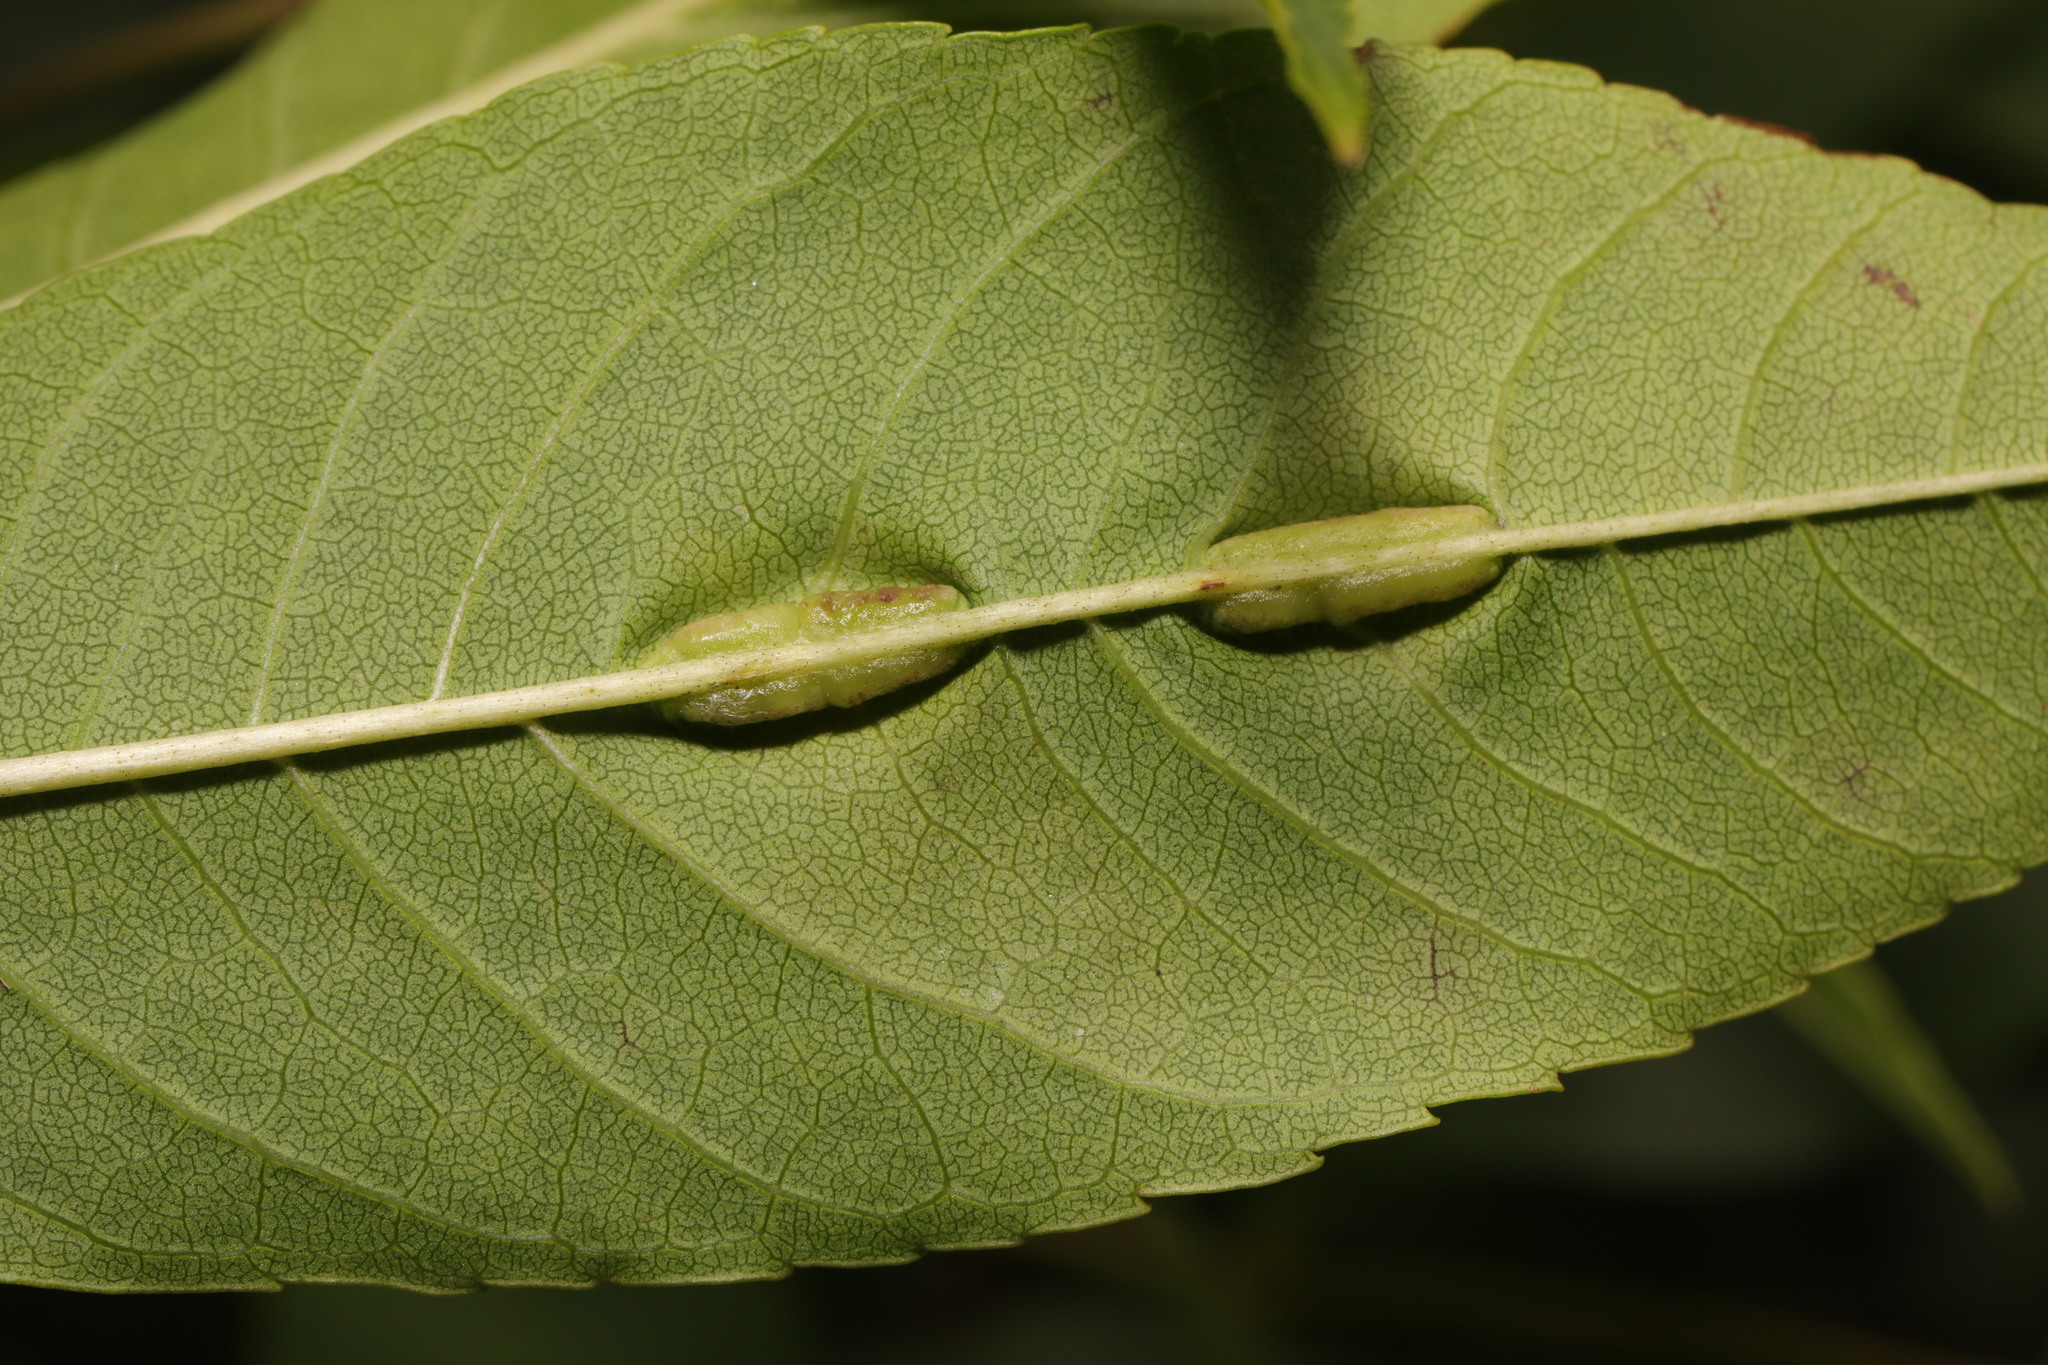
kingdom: Animalia
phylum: Arthropoda
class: Insecta
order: Diptera
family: Cecidomyiidae
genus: Dasineura
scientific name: Dasineura fraxini
